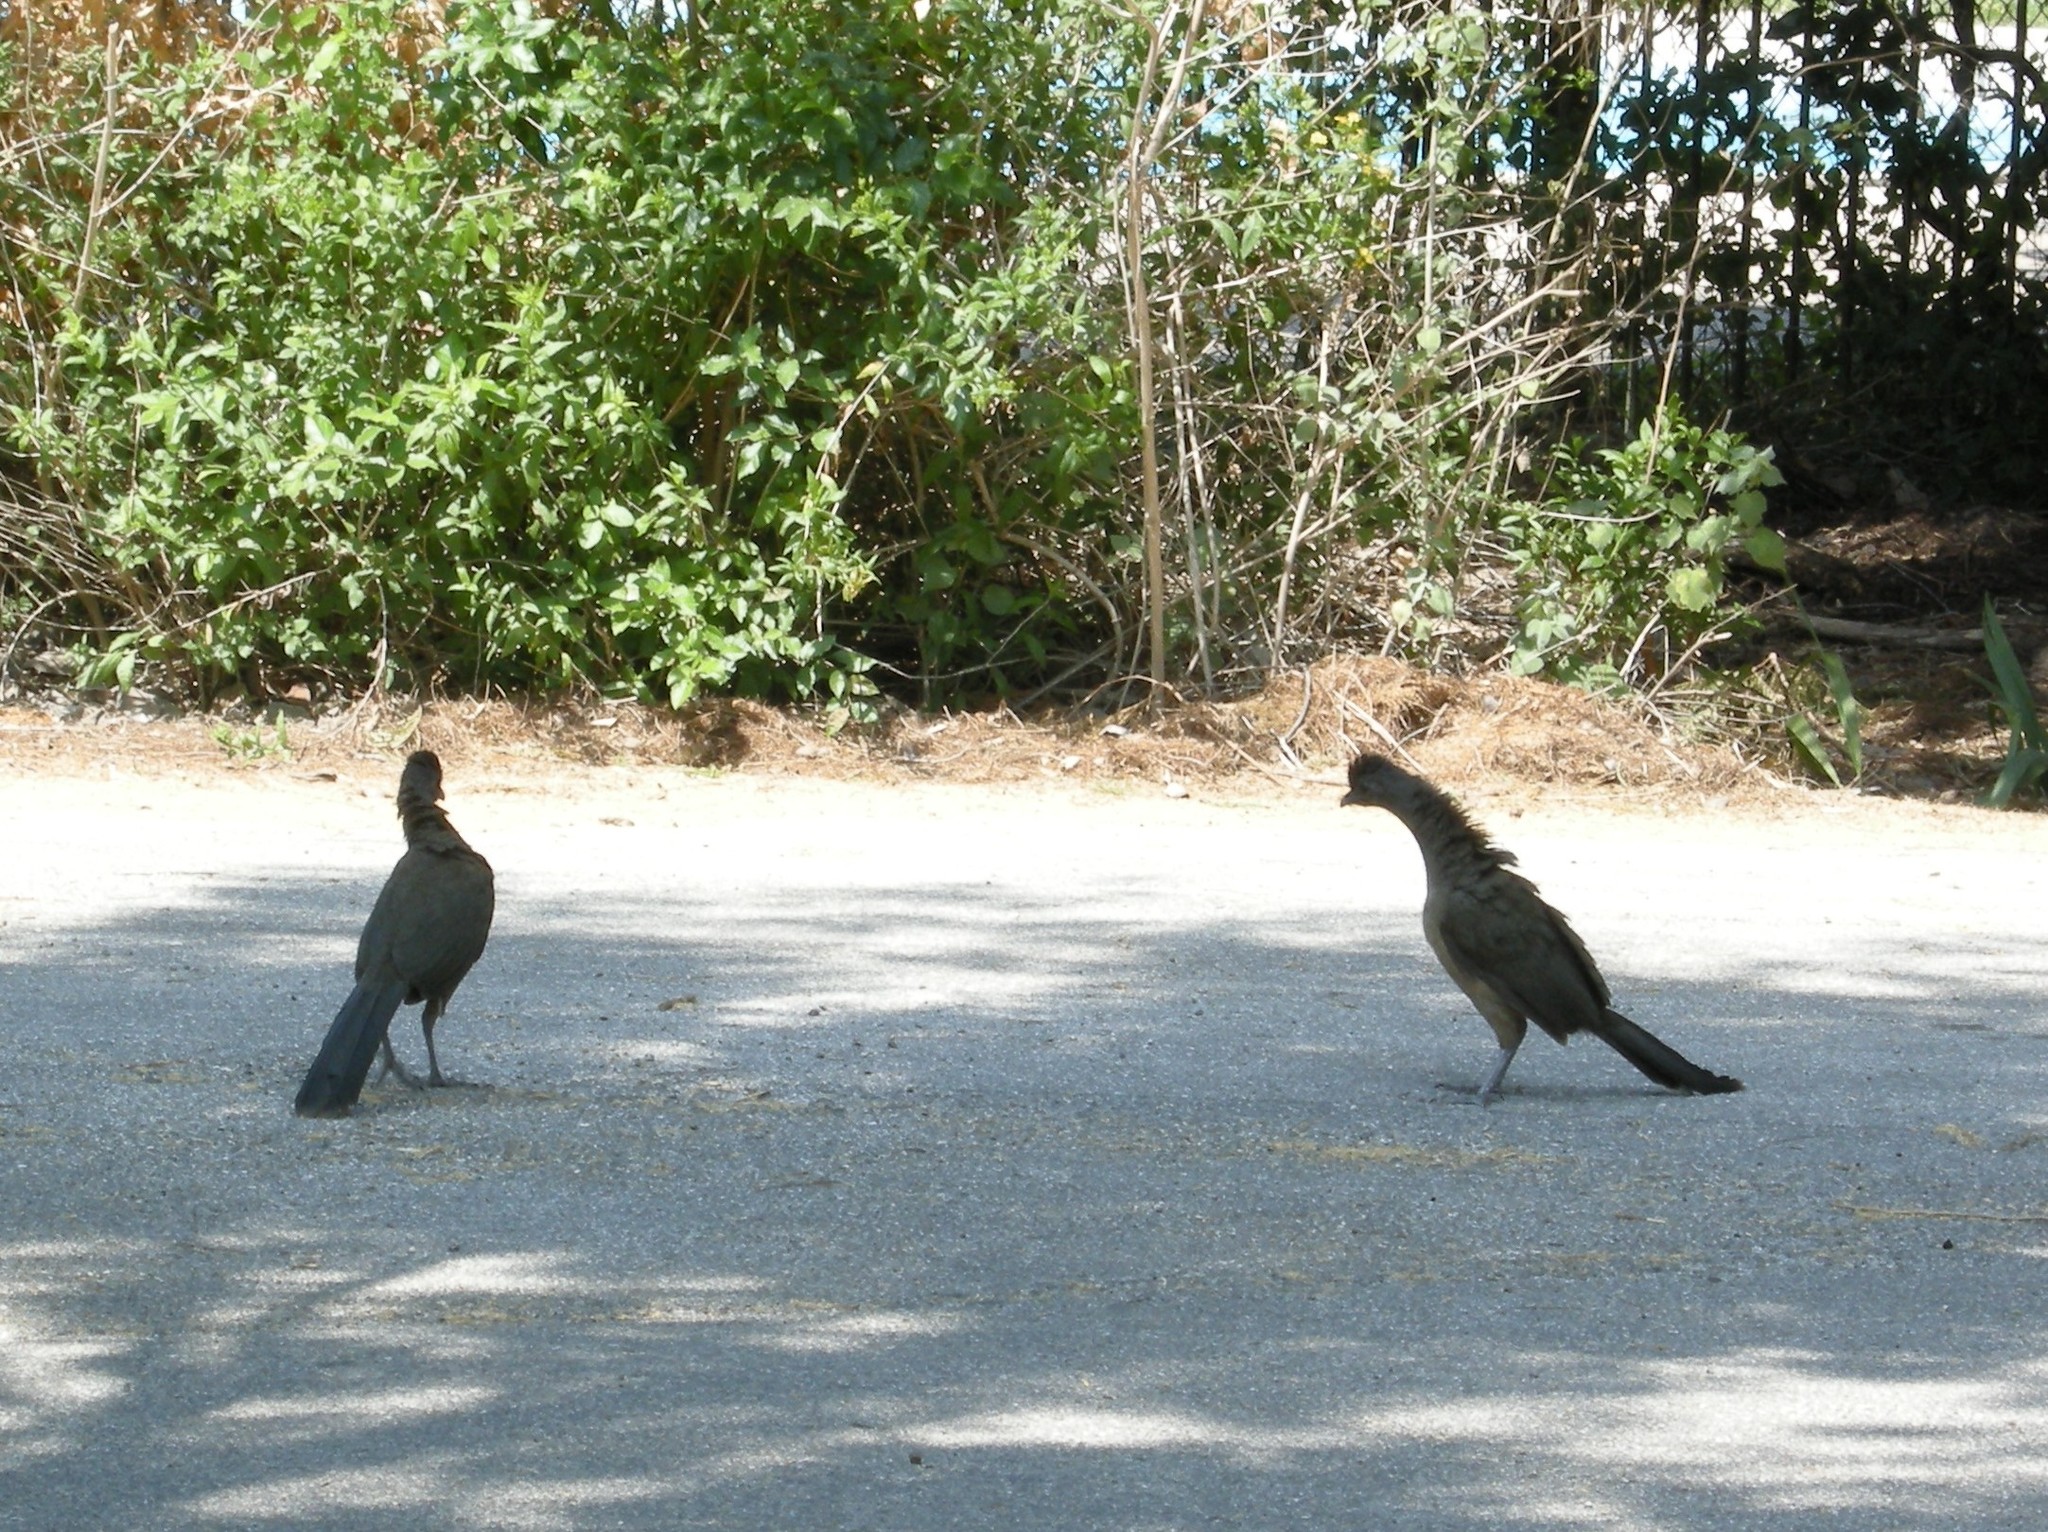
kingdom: Animalia
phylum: Chordata
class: Aves
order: Galliformes
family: Cracidae
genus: Ortalis
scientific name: Ortalis vetula
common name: Plain chachalaca
